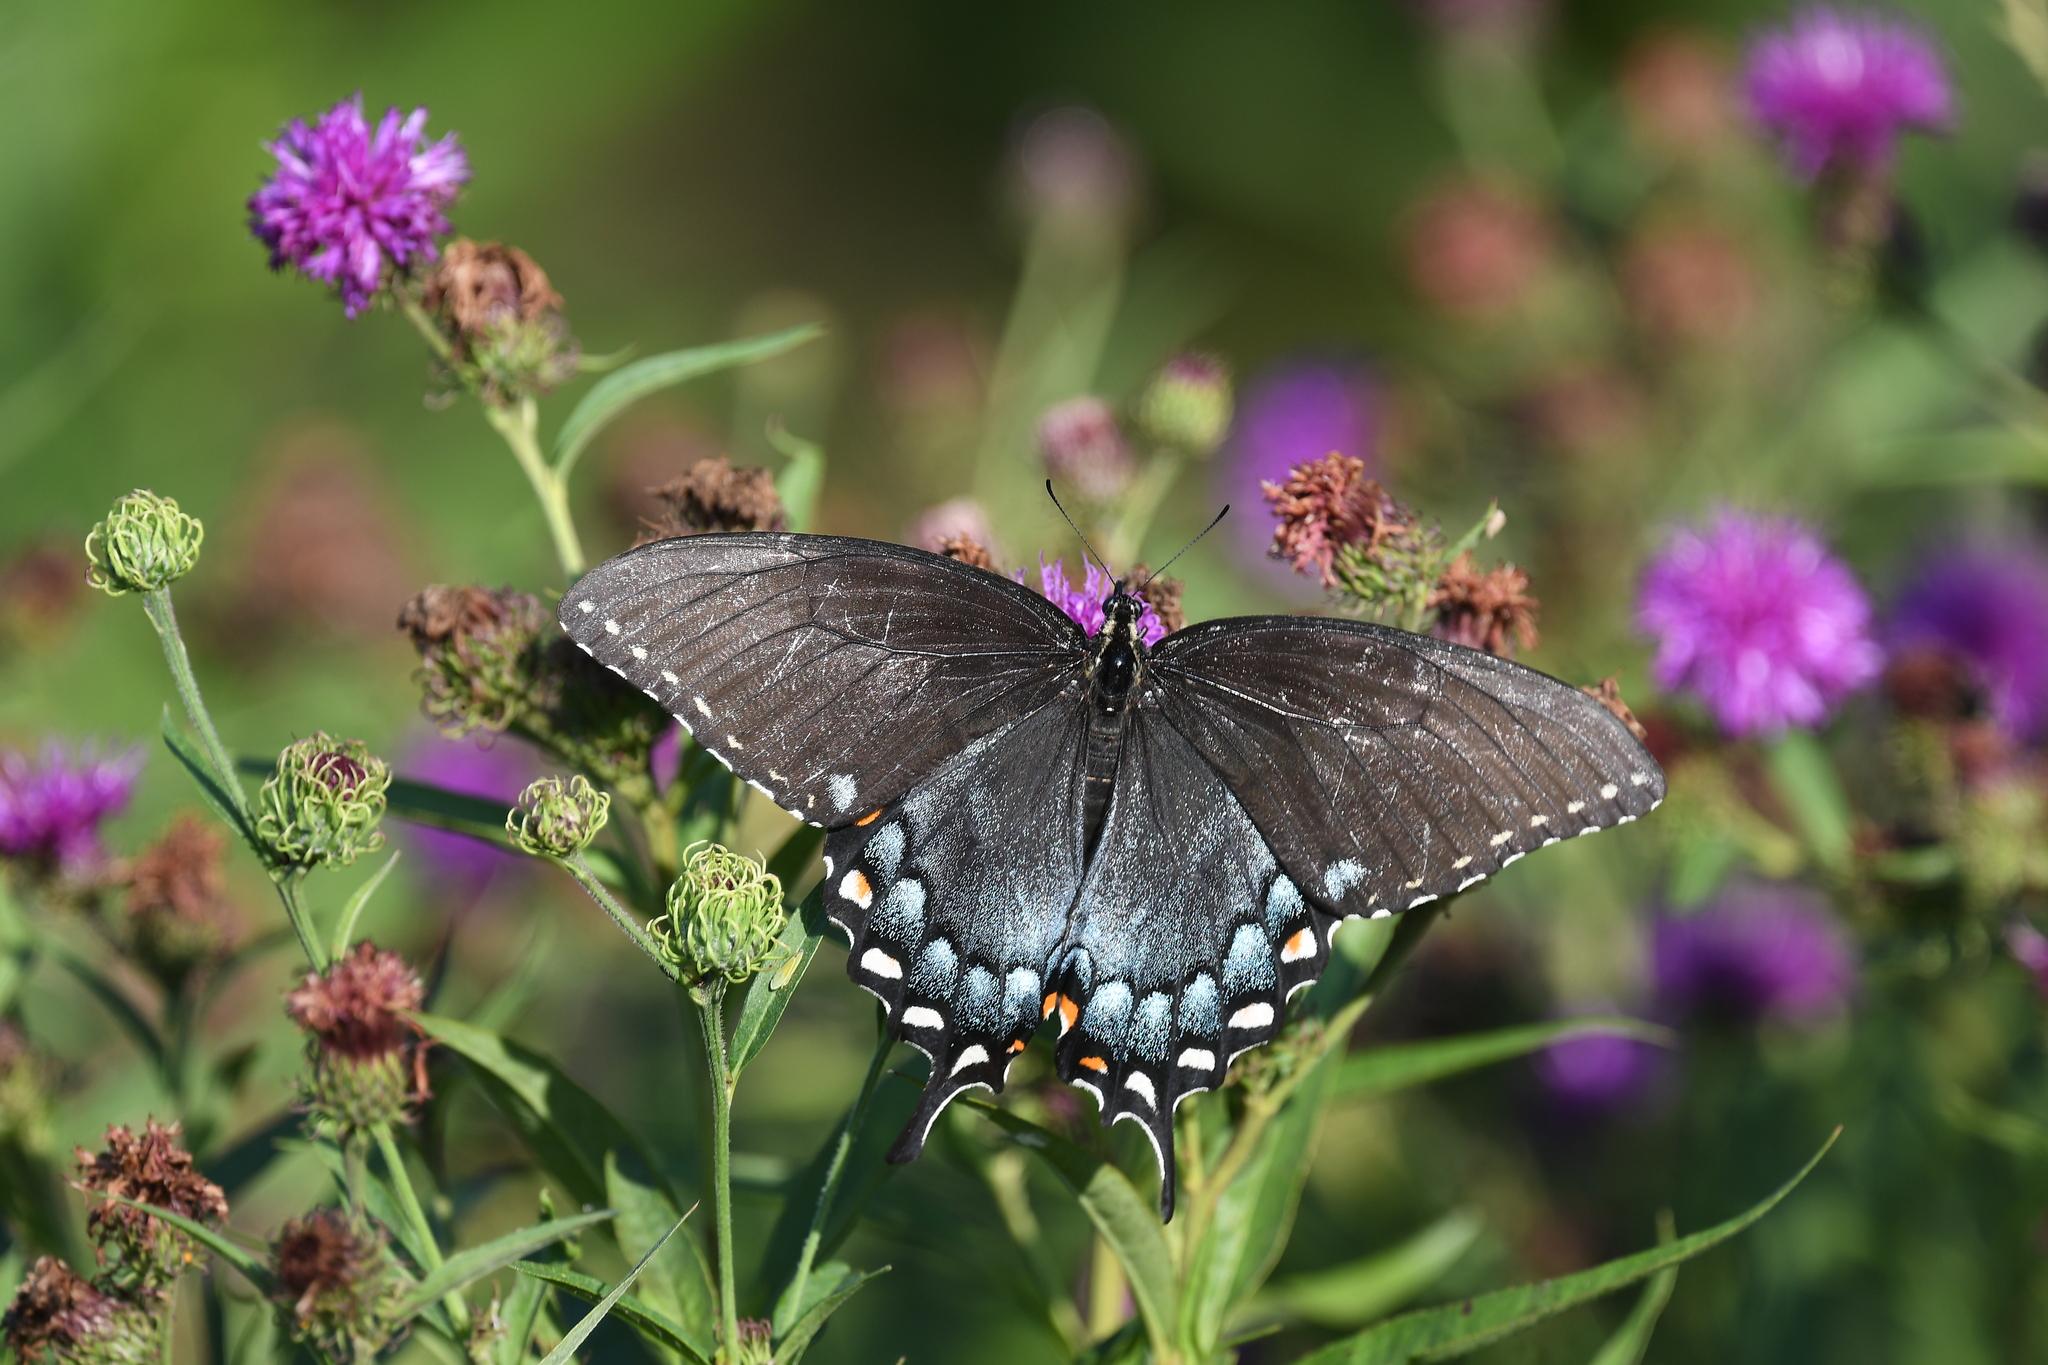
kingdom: Animalia
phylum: Arthropoda
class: Insecta
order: Lepidoptera
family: Papilionidae
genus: Papilio
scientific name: Papilio glaucus
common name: Tiger swallowtail
